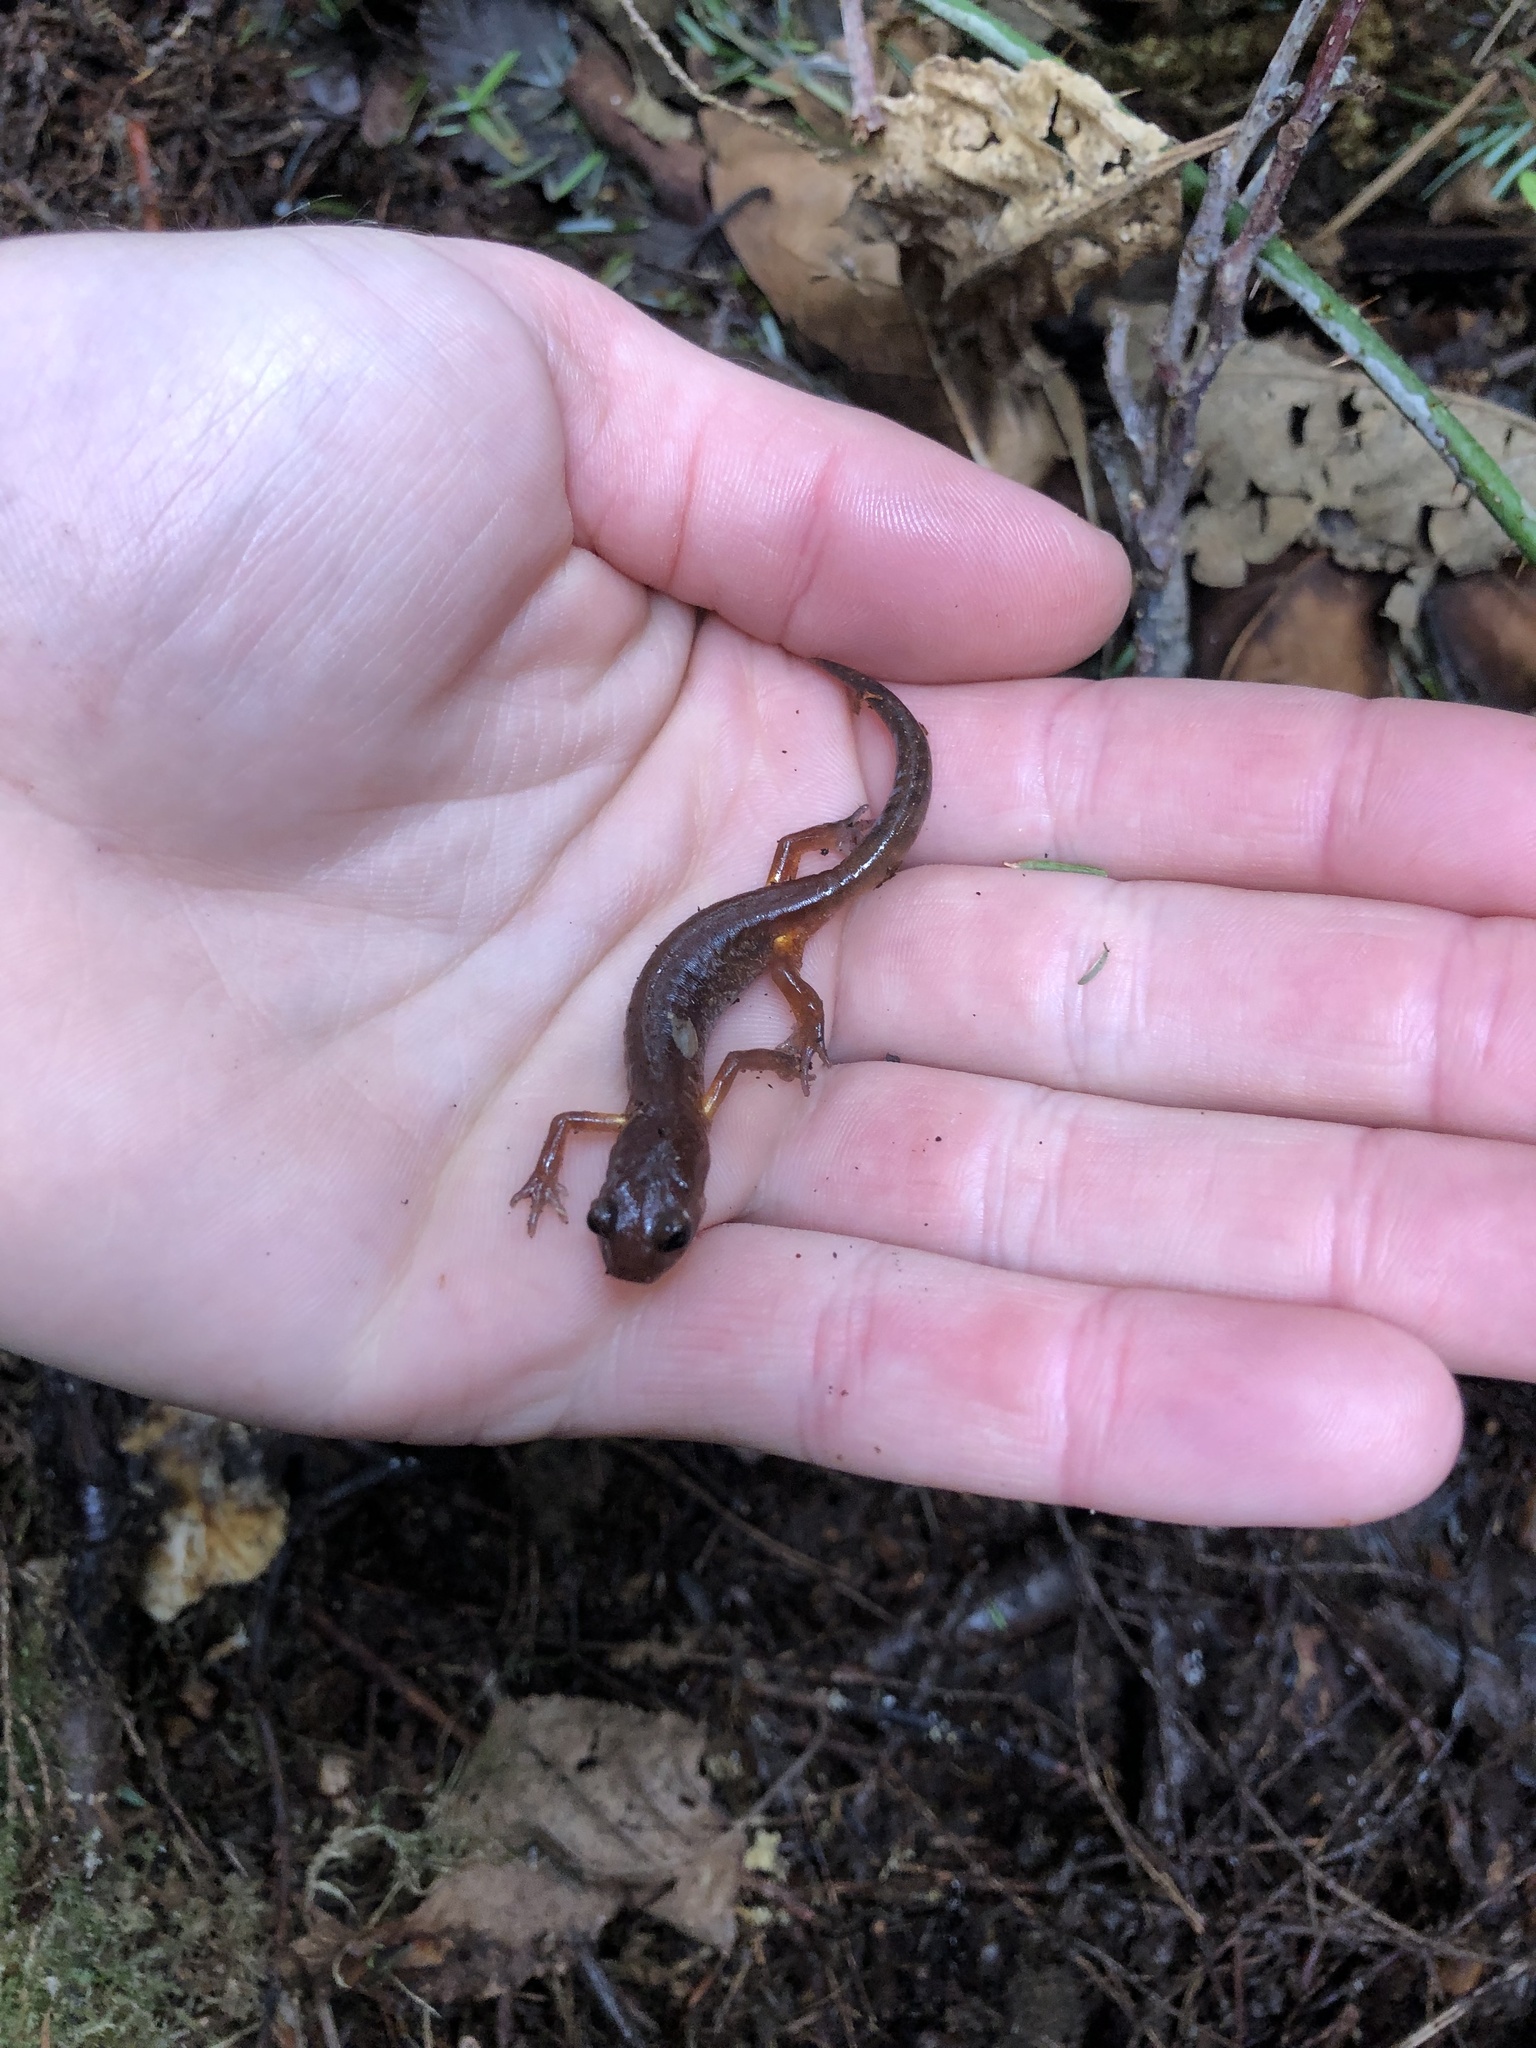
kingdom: Animalia
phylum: Chordata
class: Amphibia
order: Caudata
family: Plethodontidae
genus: Ensatina
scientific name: Ensatina eschscholtzii
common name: Ensatina
